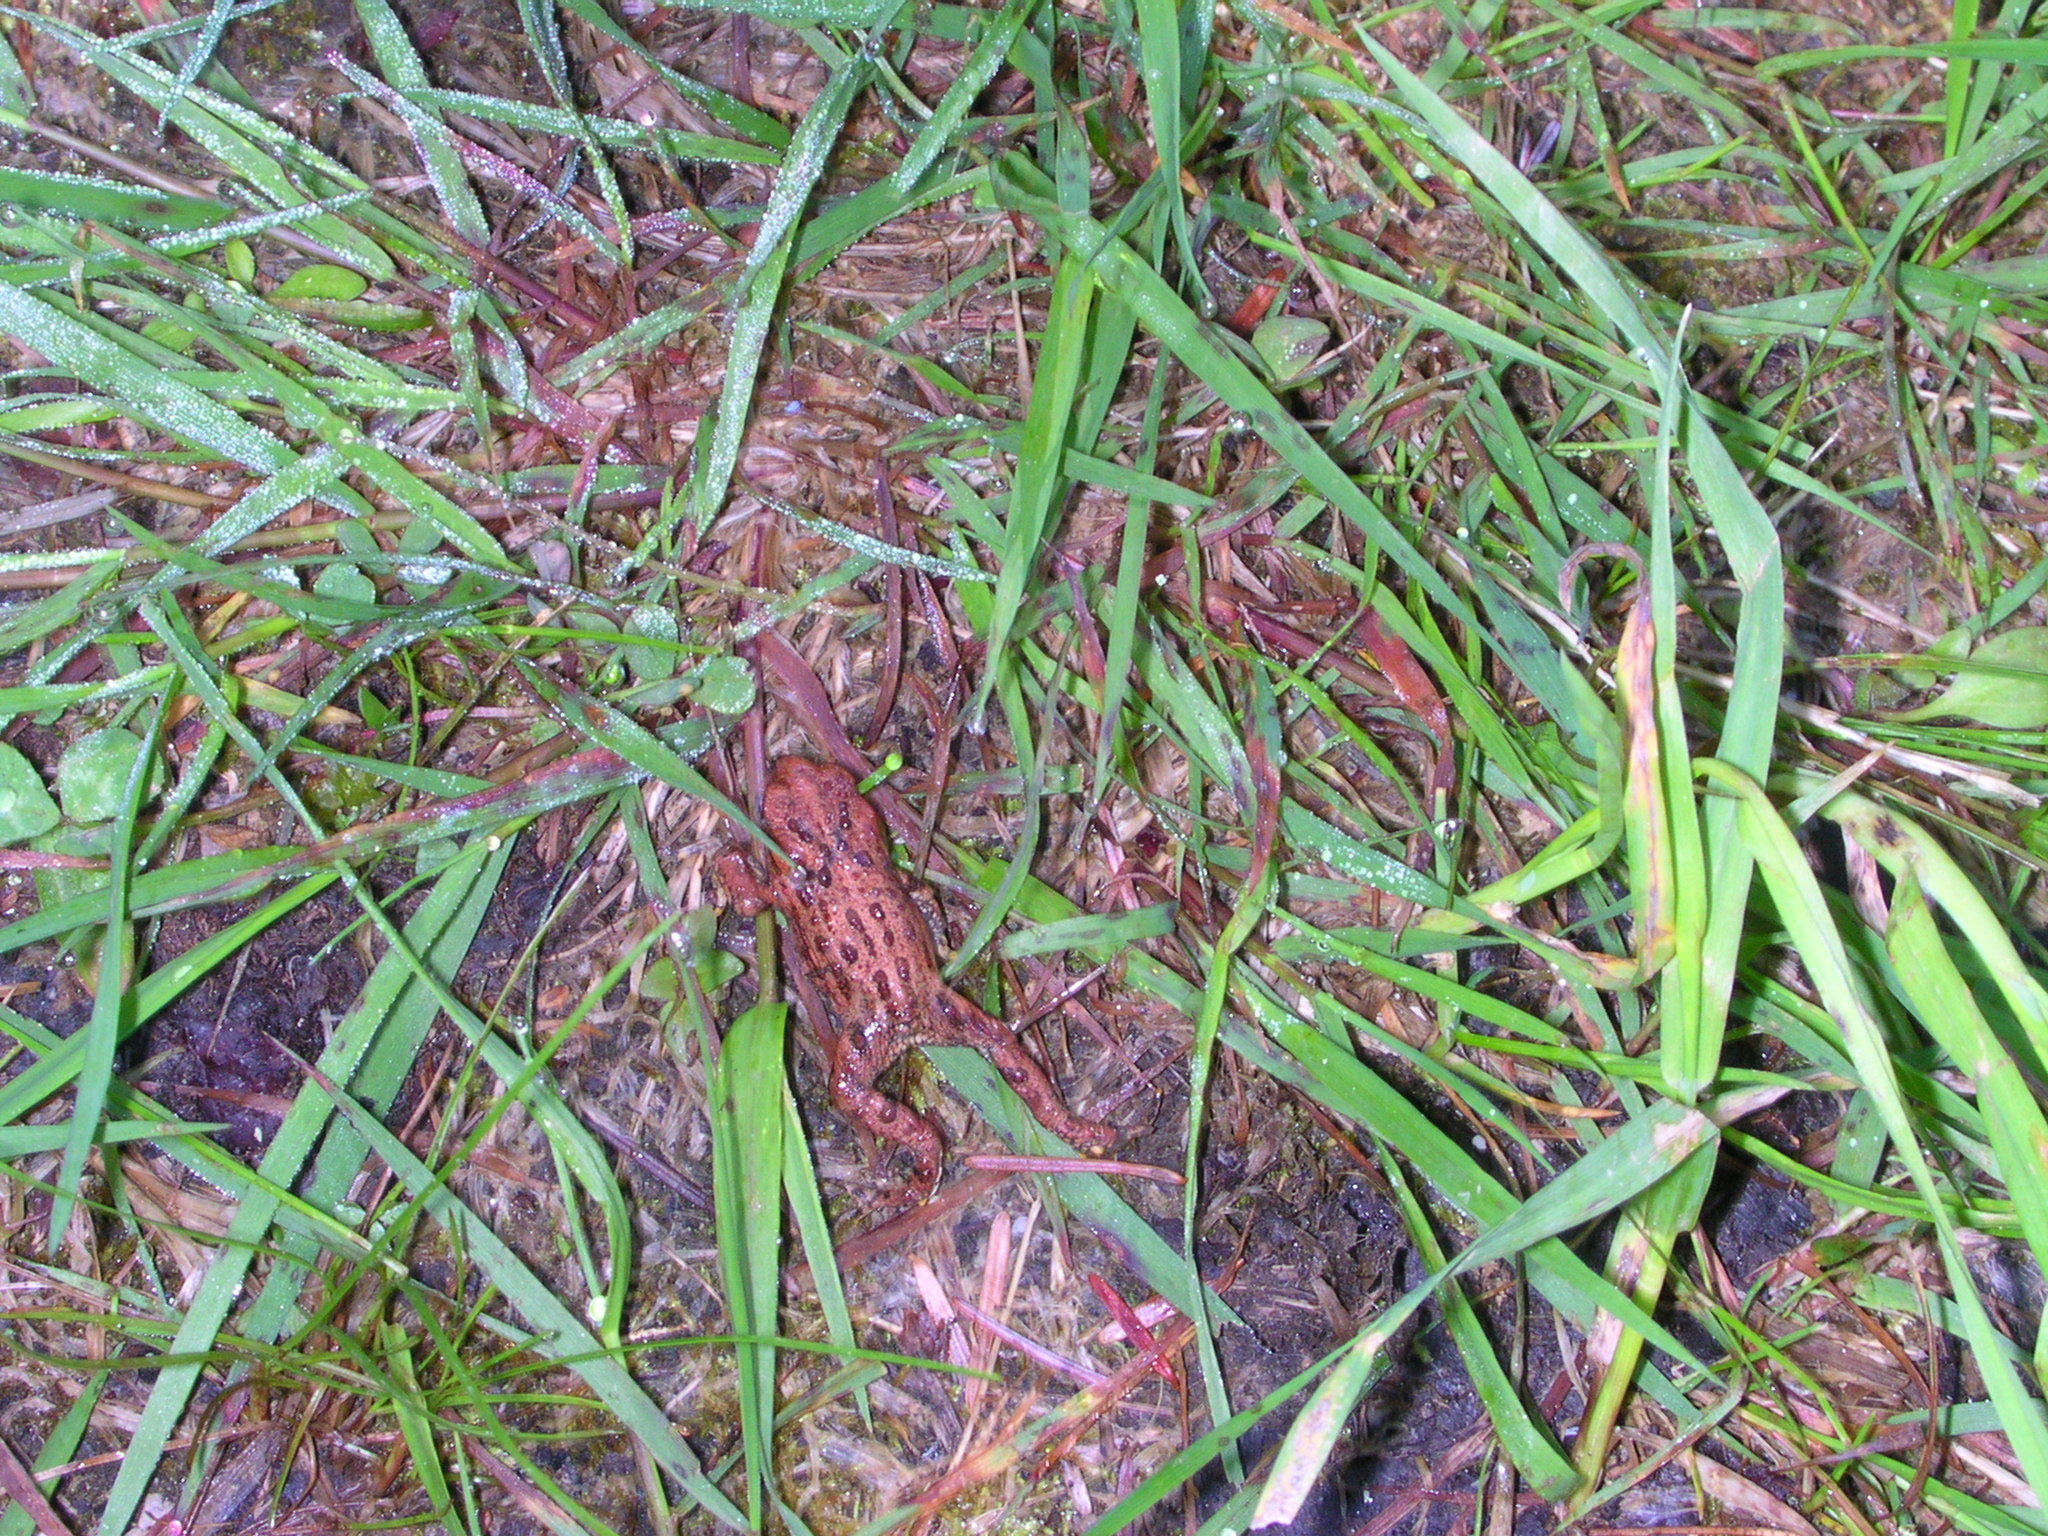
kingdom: Animalia
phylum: Chordata
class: Amphibia
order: Anura
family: Bufonidae
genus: Anaxyrus
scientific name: Anaxyrus boreas
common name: Western toad
